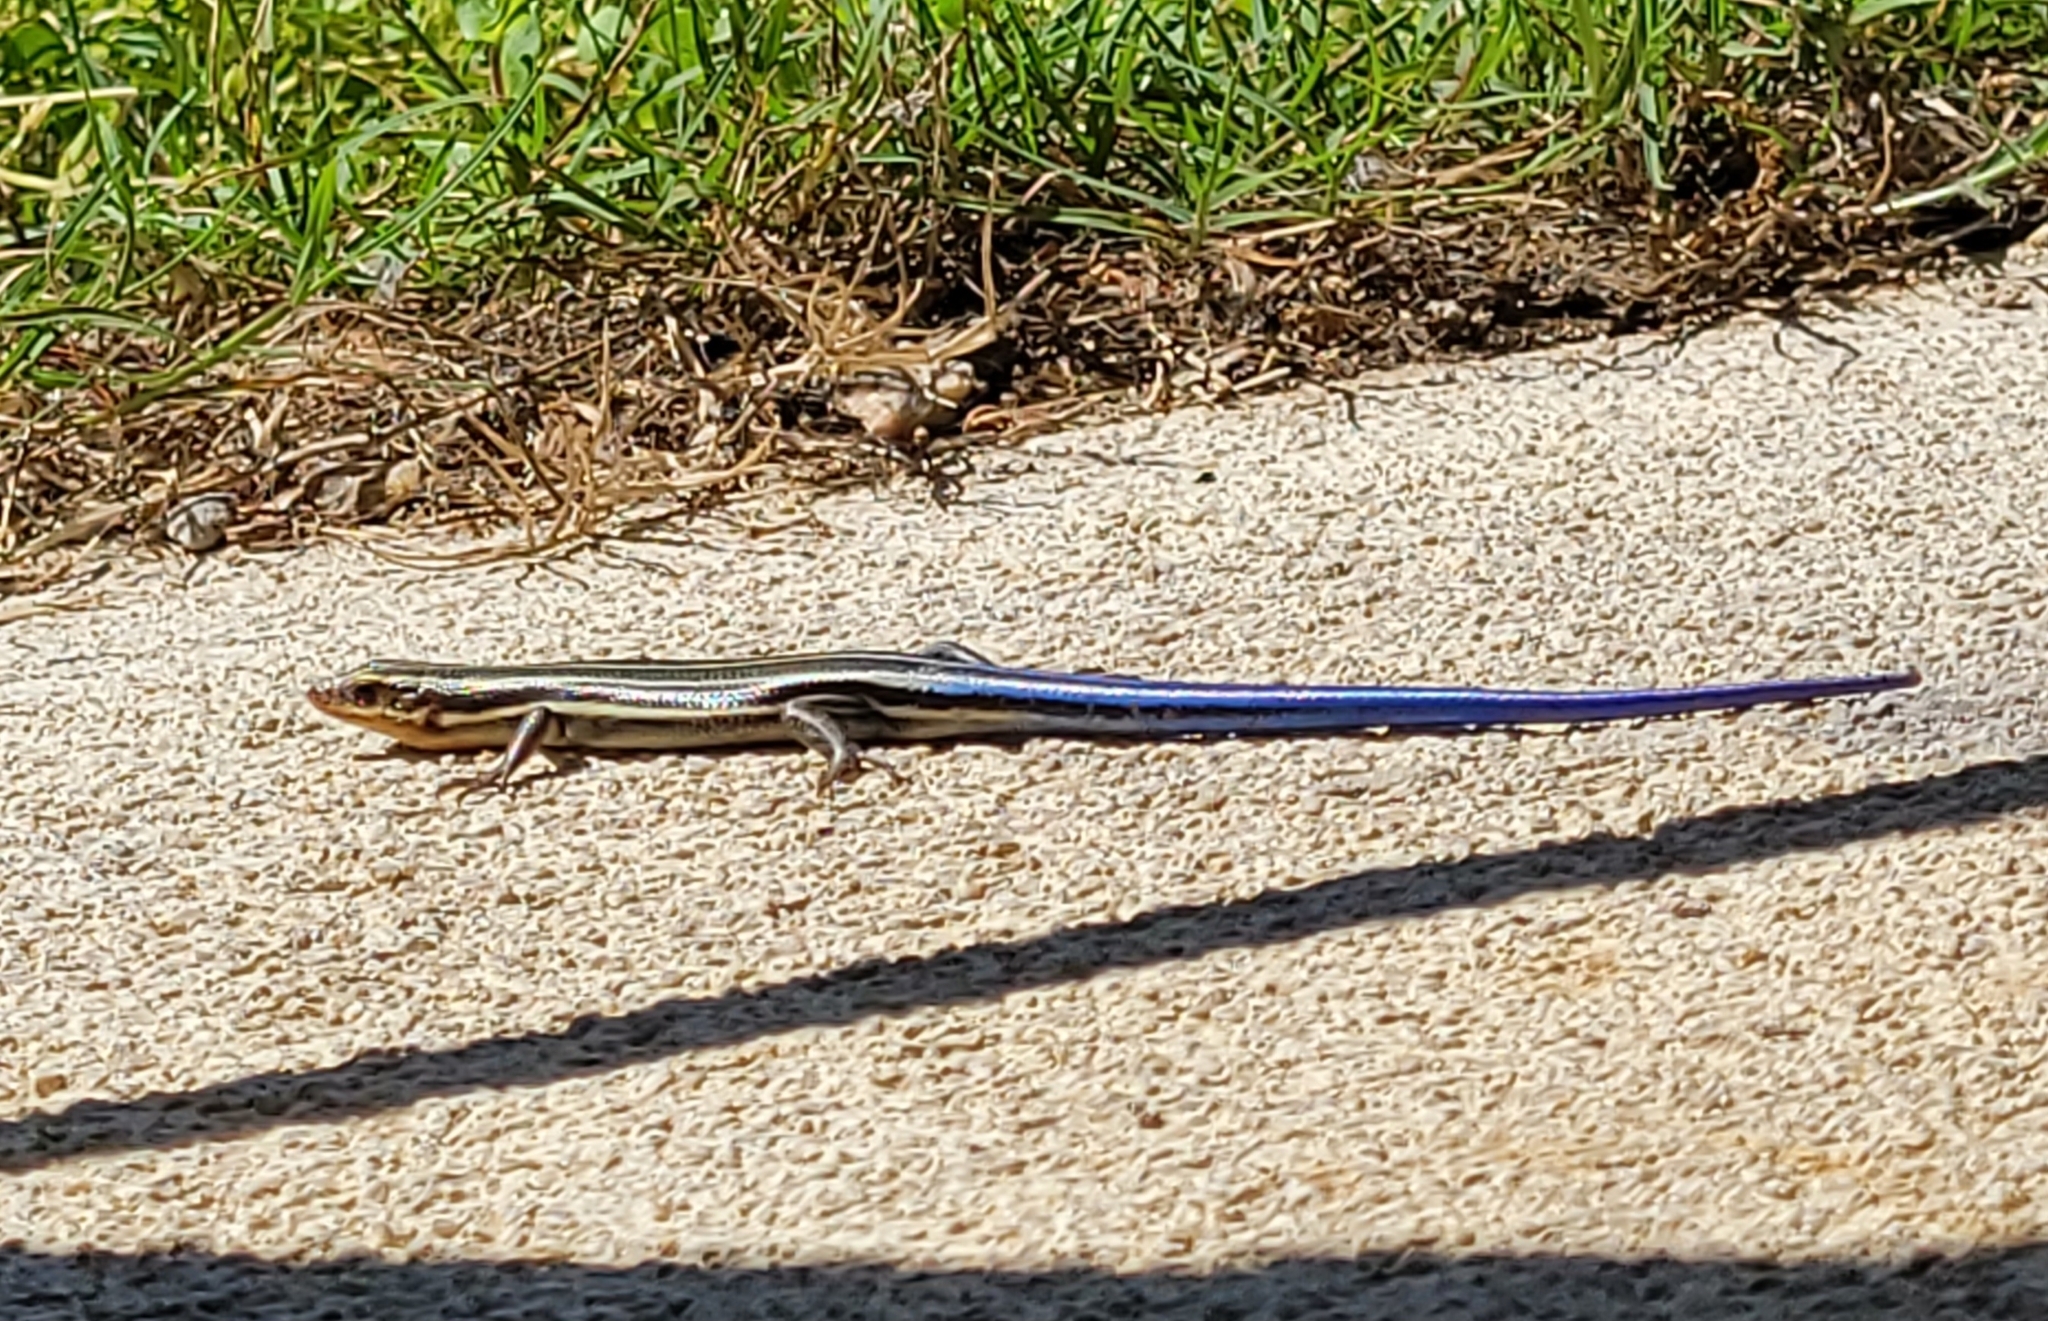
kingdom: Animalia
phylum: Chordata
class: Squamata
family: Scincidae
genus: Plestiodon
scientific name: Plestiodon fasciatus
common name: Five-lined skink
